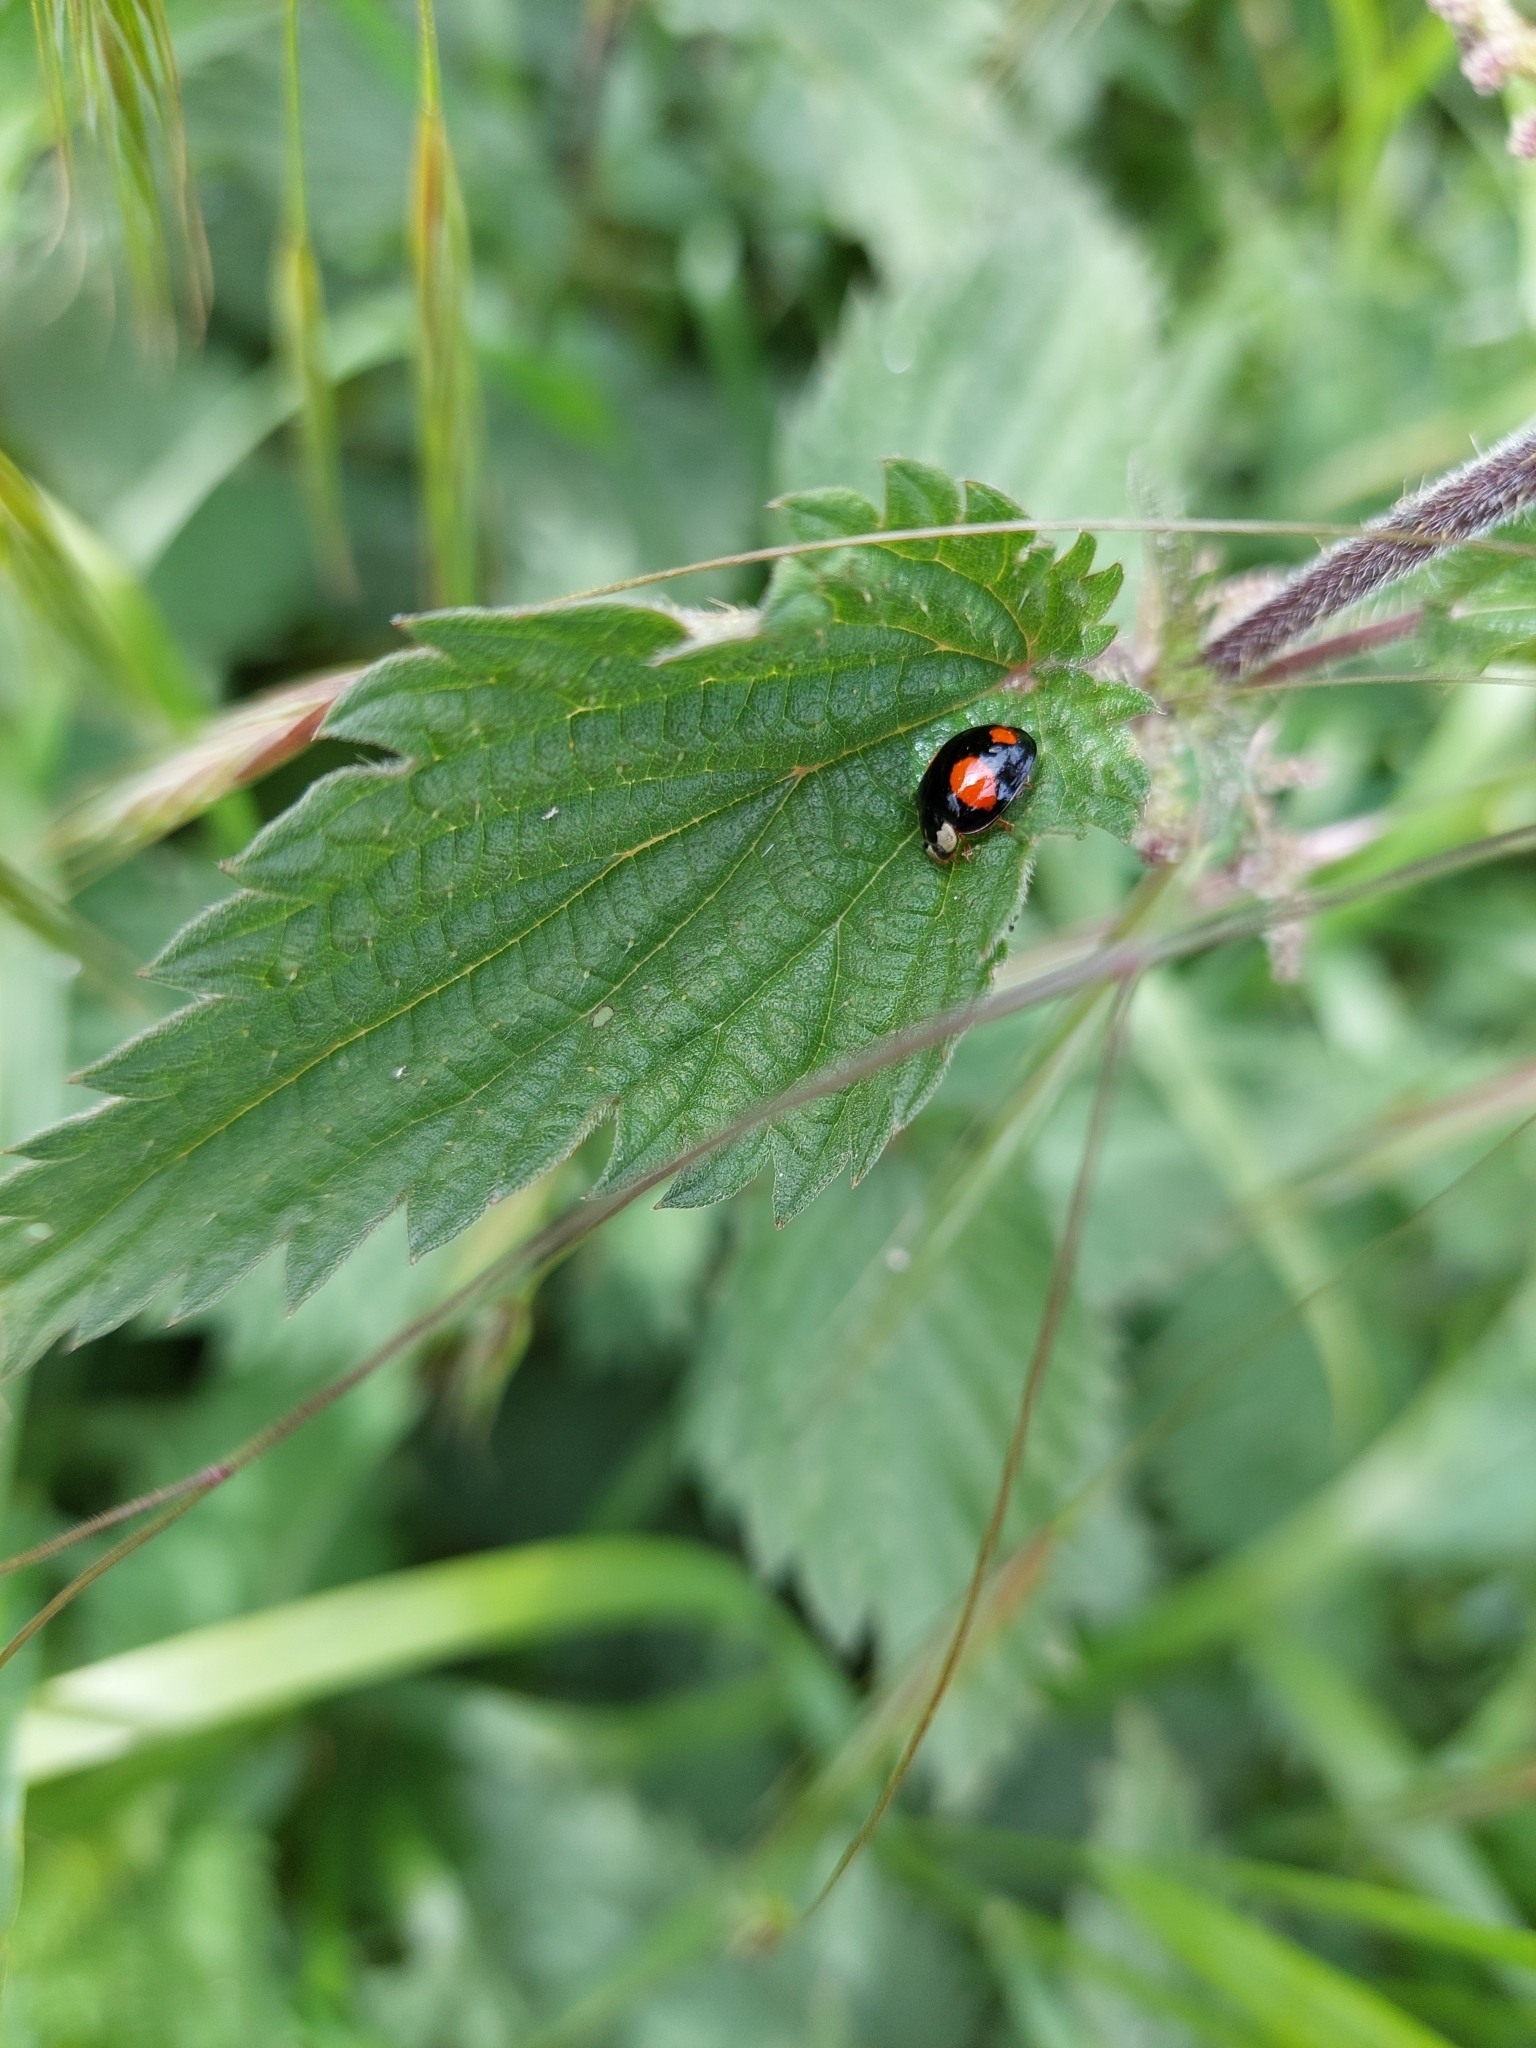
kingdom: Animalia
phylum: Arthropoda
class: Insecta
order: Coleoptera
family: Coccinellidae
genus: Harmonia
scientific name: Harmonia axyridis
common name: Harlequin ladybird
